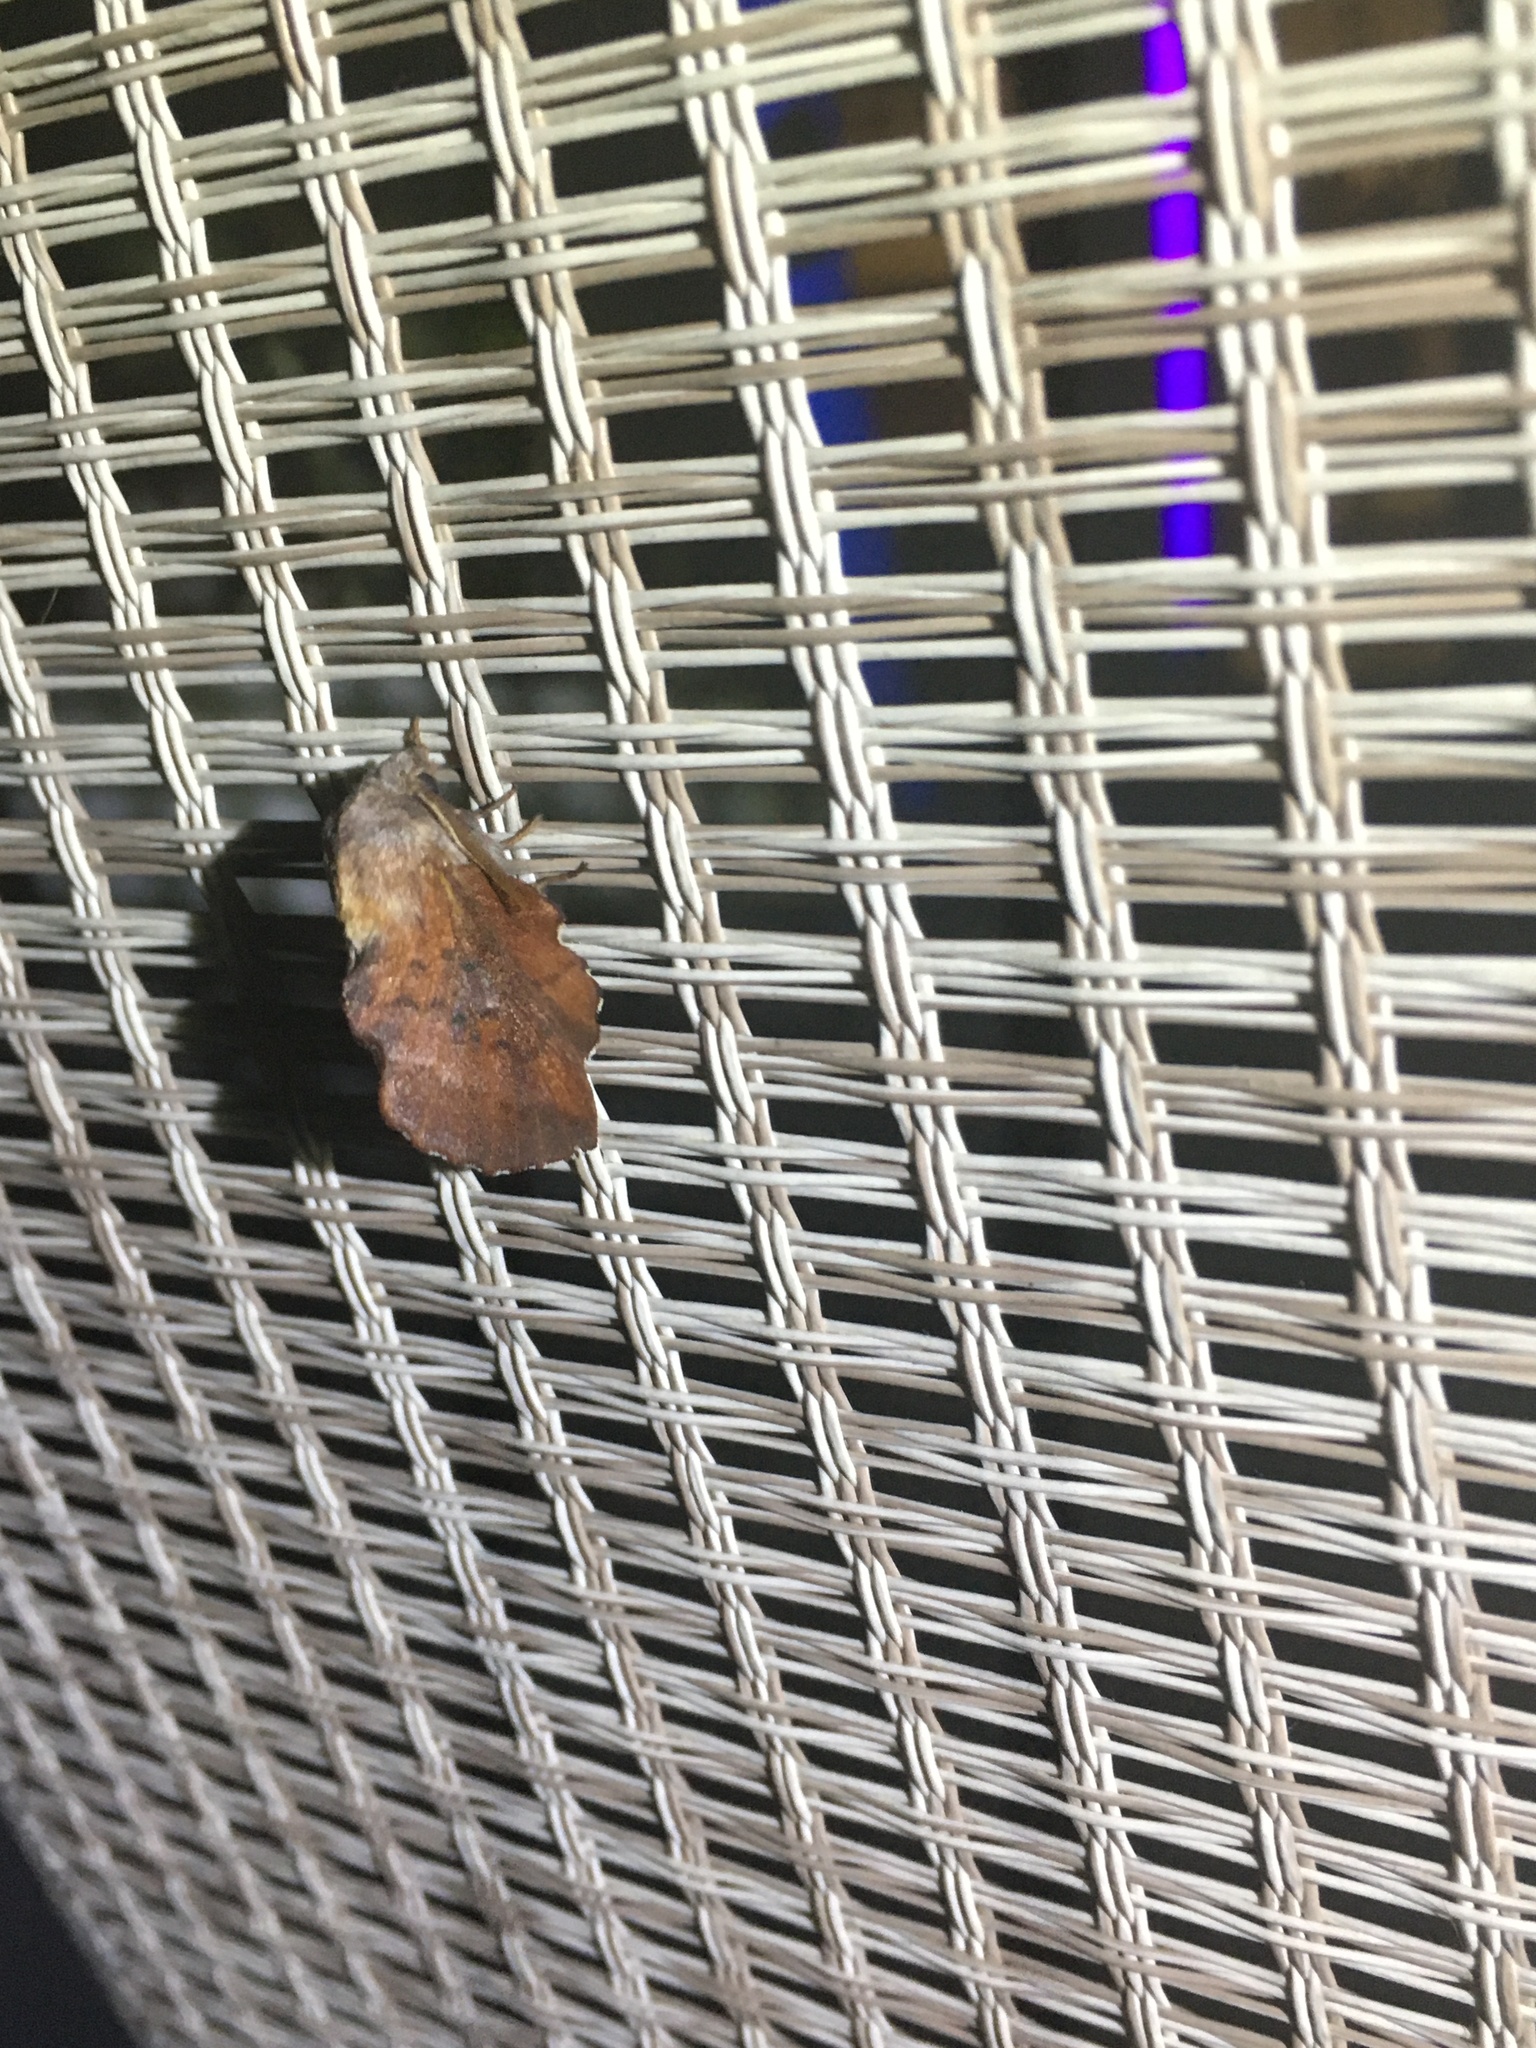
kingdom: Animalia
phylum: Arthropoda
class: Insecta
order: Lepidoptera
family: Lasiocampidae
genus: Phyllodesma
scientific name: Phyllodesma americana
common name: American lappet moth
